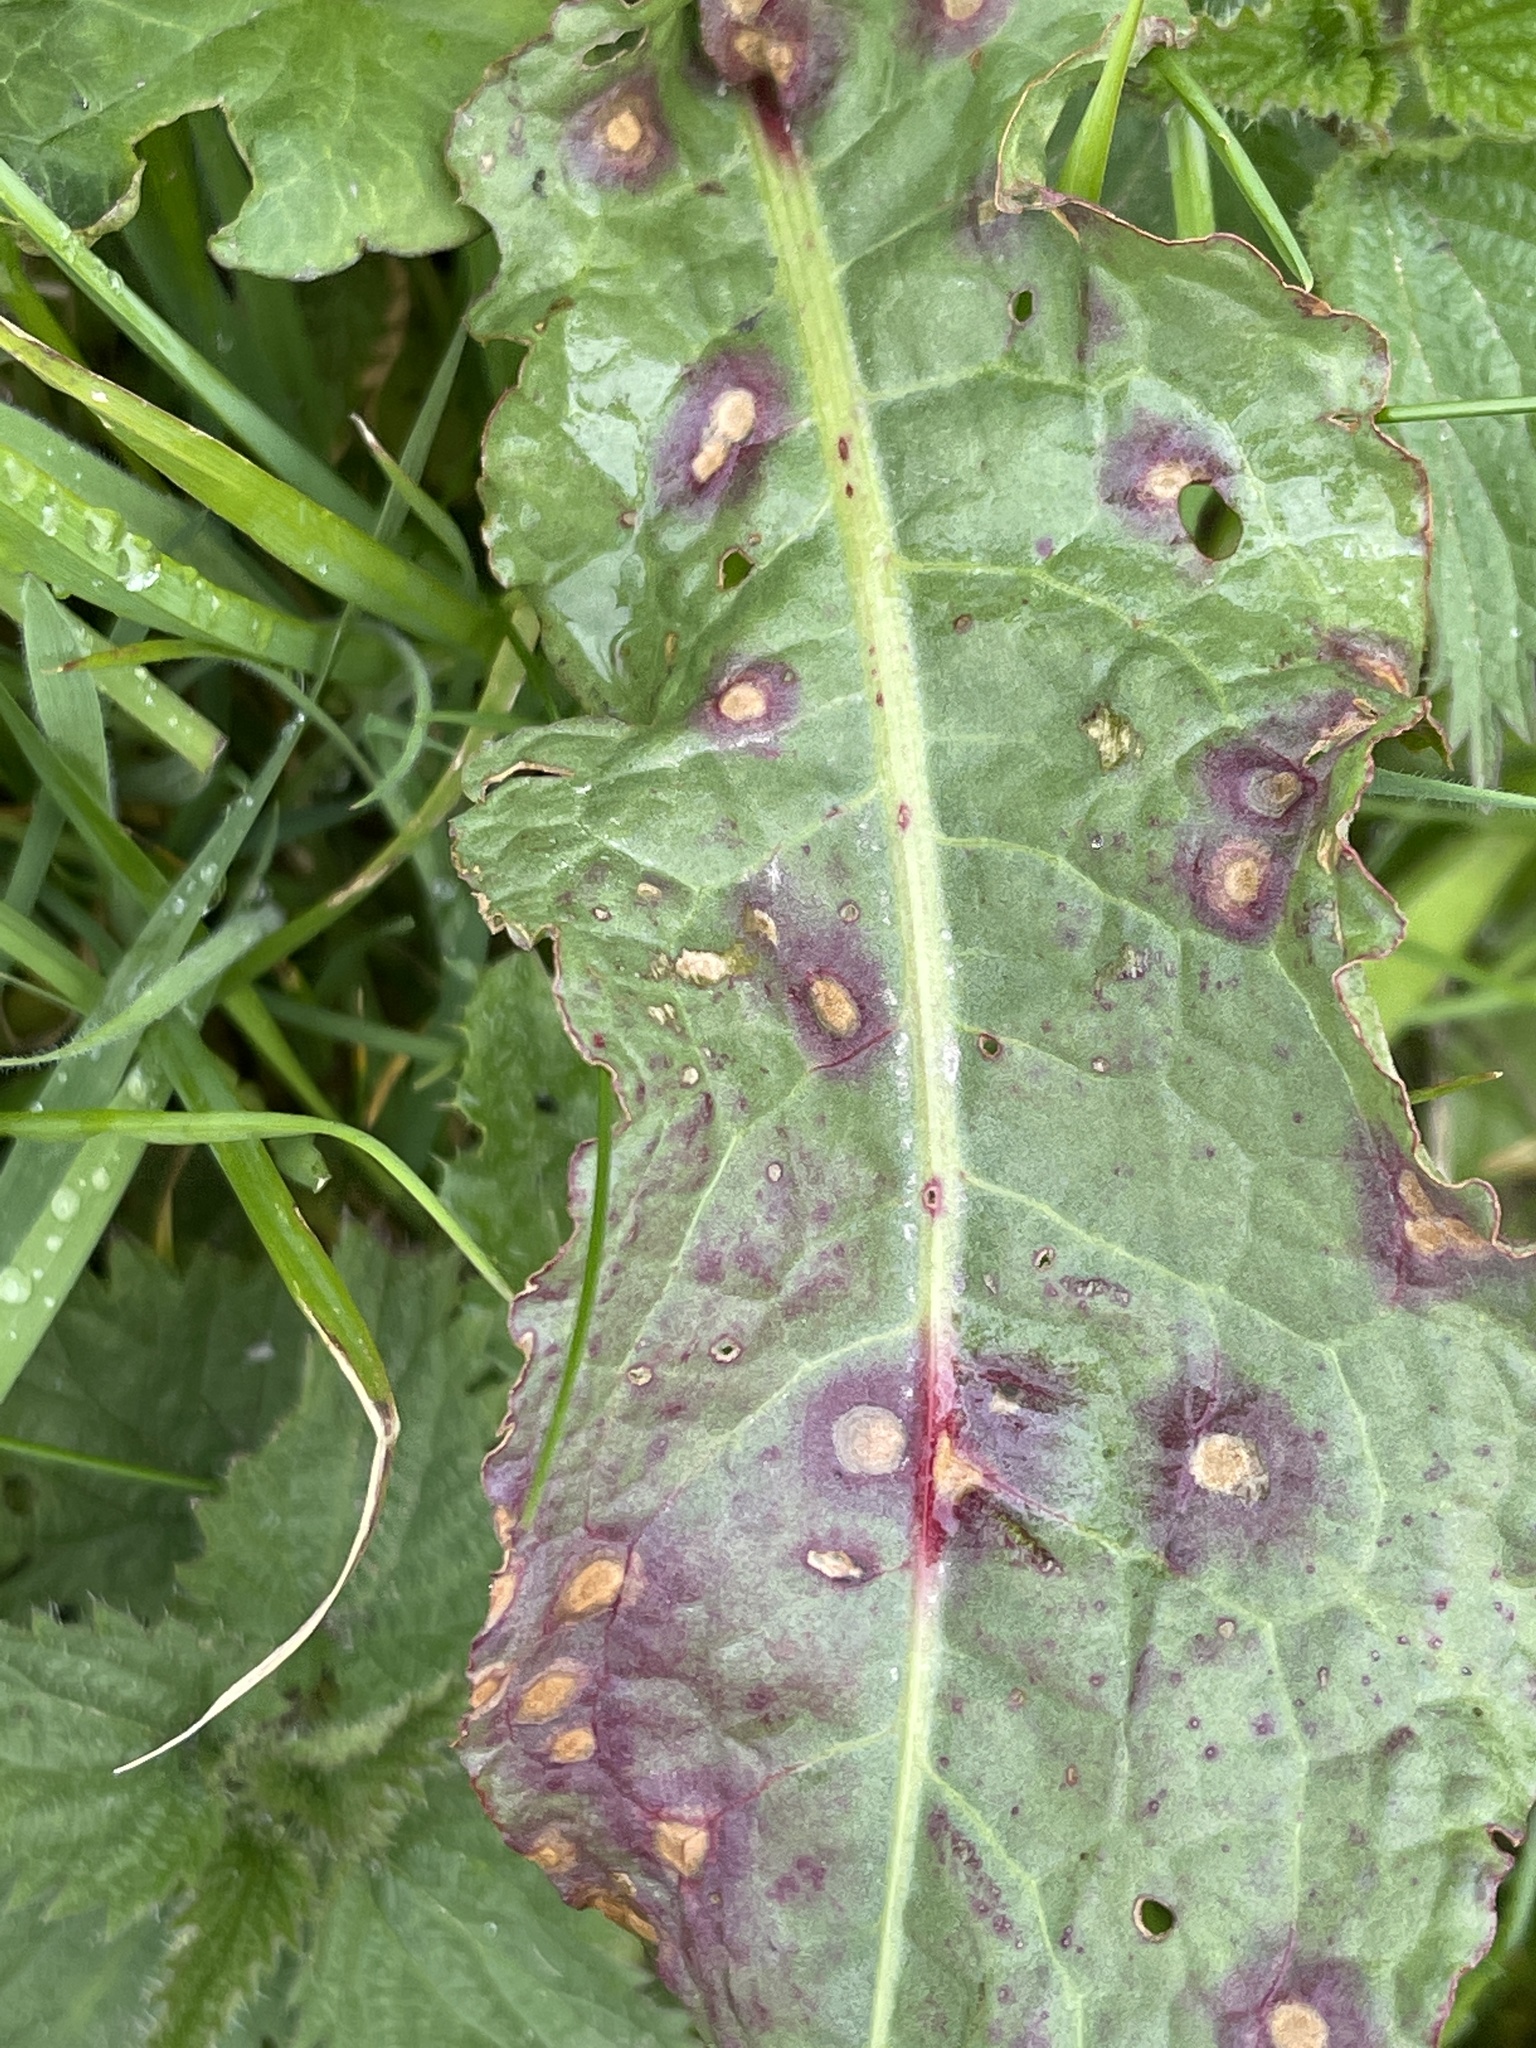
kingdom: Fungi
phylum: Ascomycota
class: Dothideomycetes
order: Mycosphaerellales
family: Mycosphaerellaceae
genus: Ramularia
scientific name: Ramularia rubella
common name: Red dock spot
